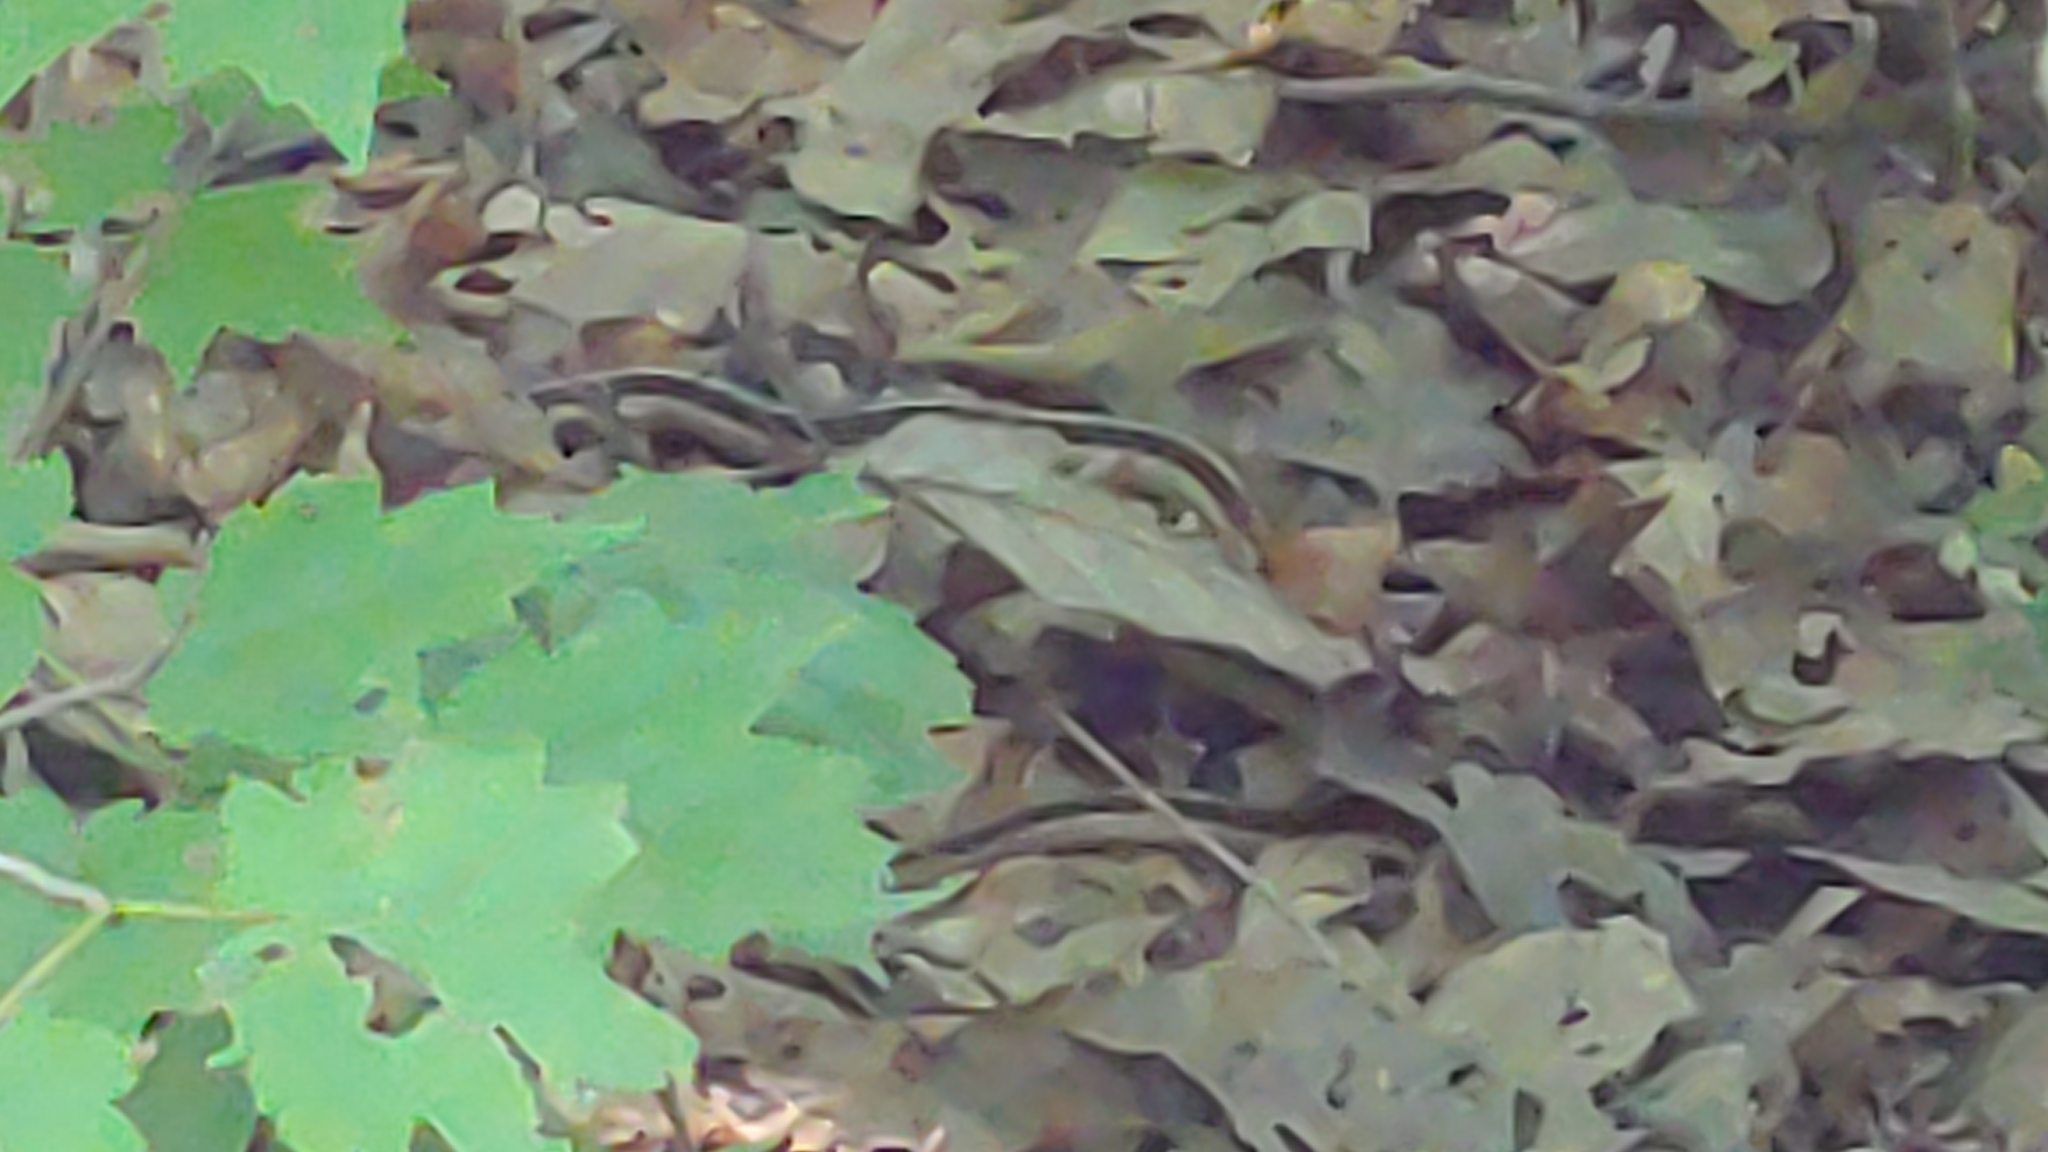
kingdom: Animalia
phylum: Chordata
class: Squamata
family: Colubridae
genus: Thamnophis
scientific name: Thamnophis sirtalis
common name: Common garter snake
